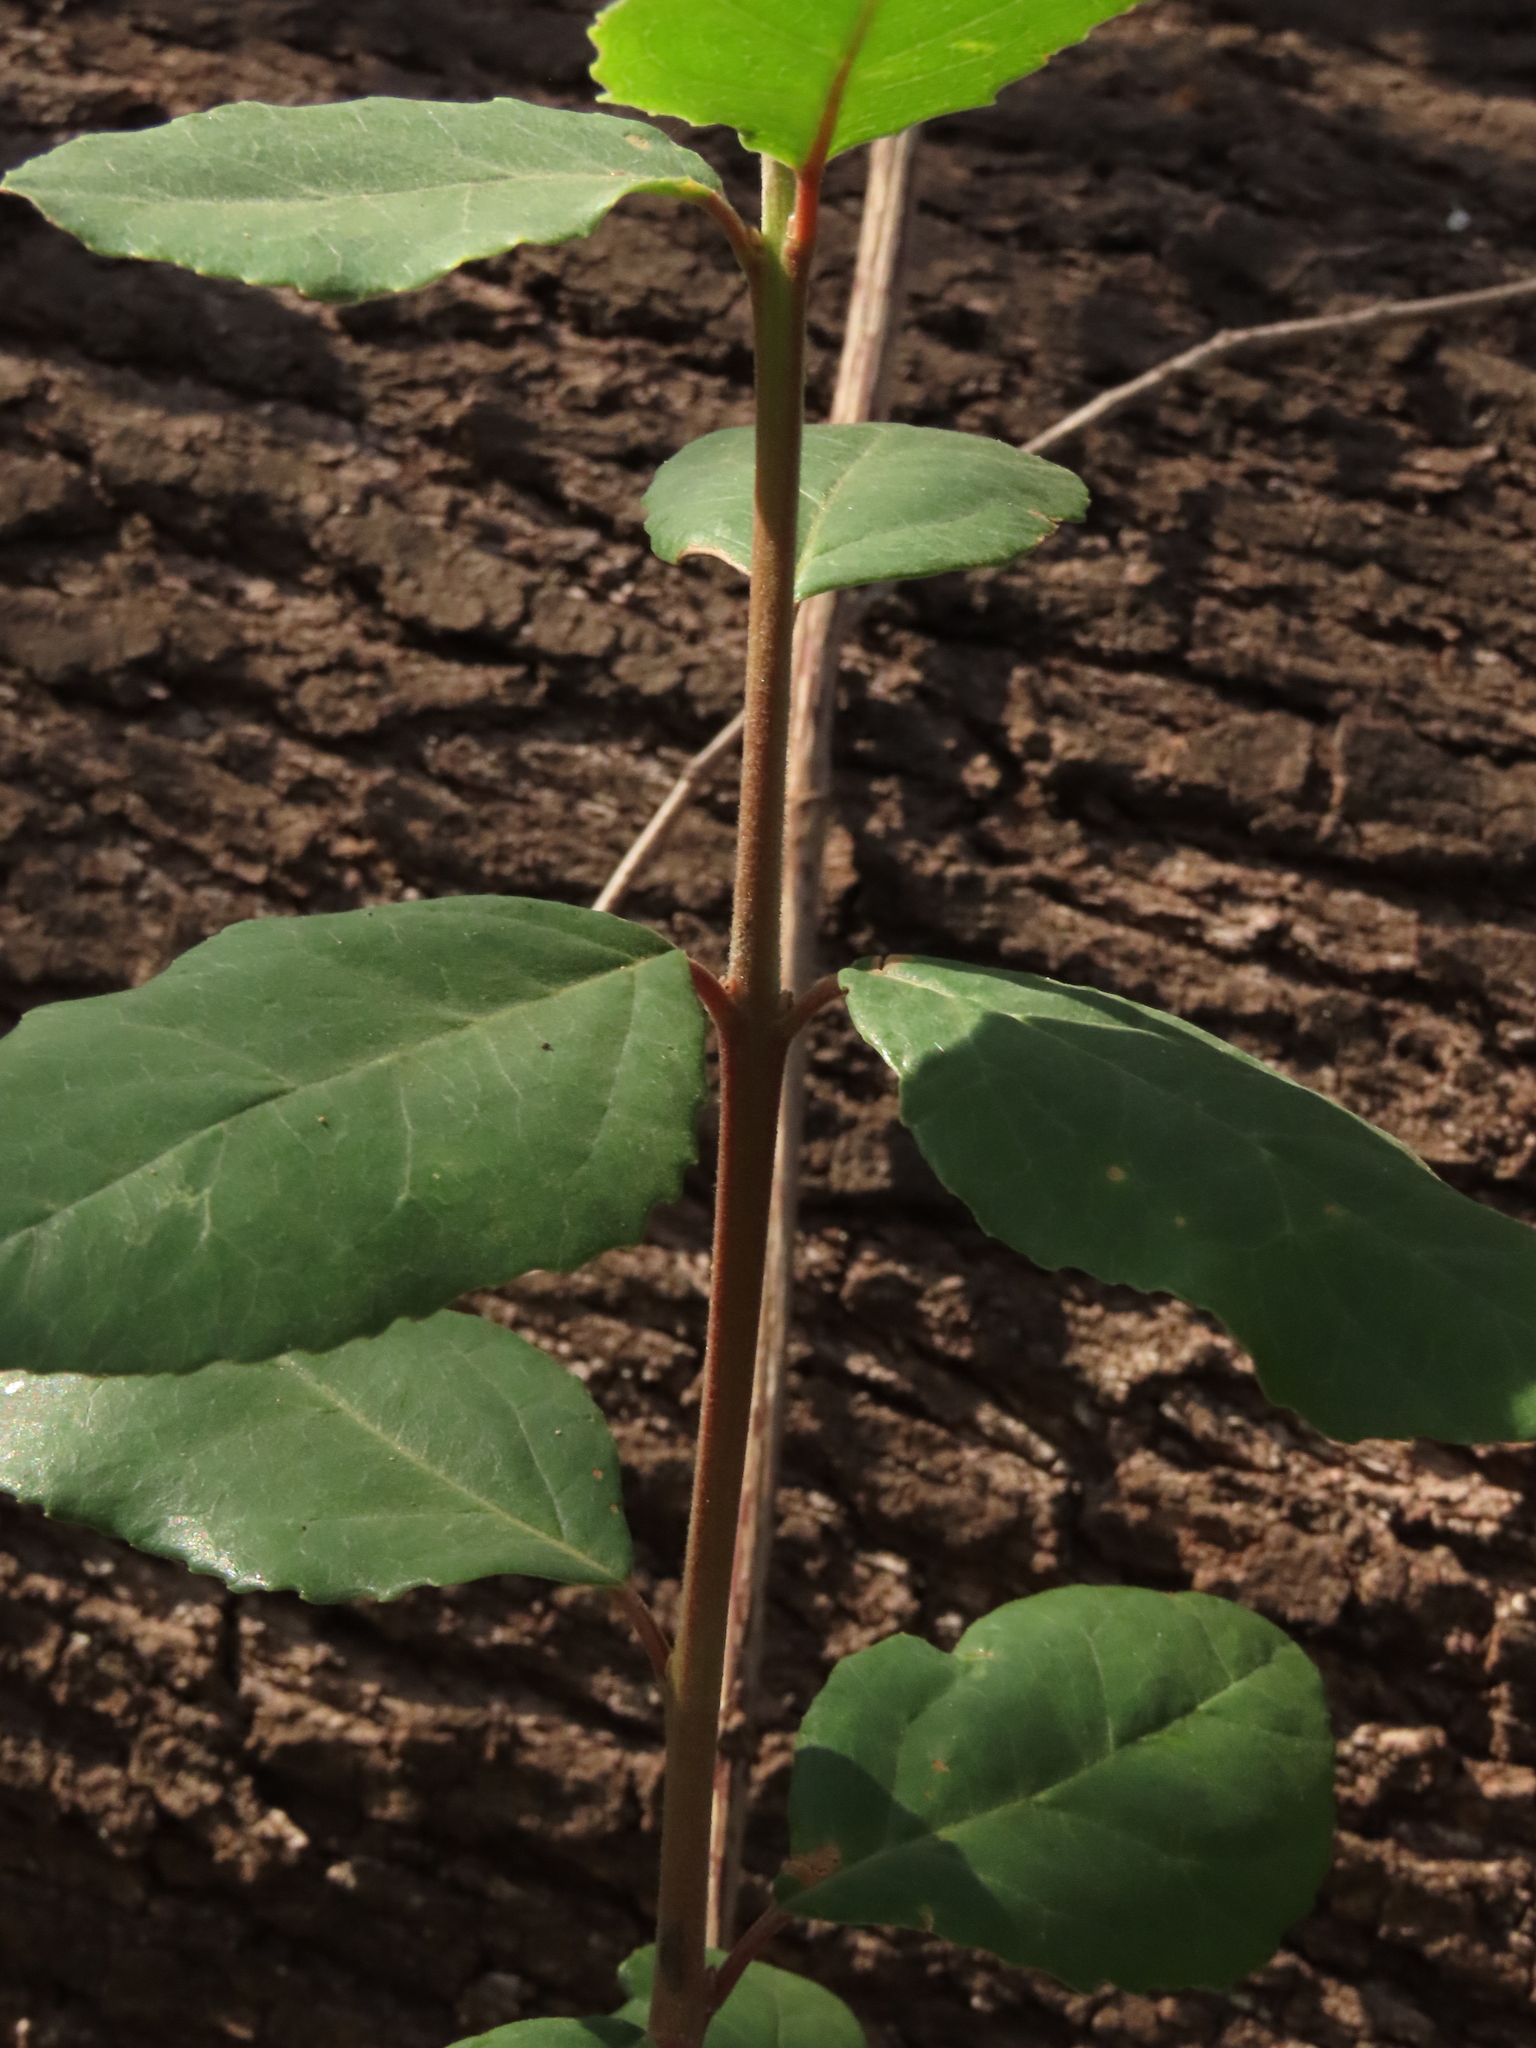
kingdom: Plantae
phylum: Tracheophyta
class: Magnoliopsida
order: Oxalidales
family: Elaeocarpaceae
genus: Crinodendron
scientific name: Crinodendron patagua
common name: Lily-of-the-valley-tree
